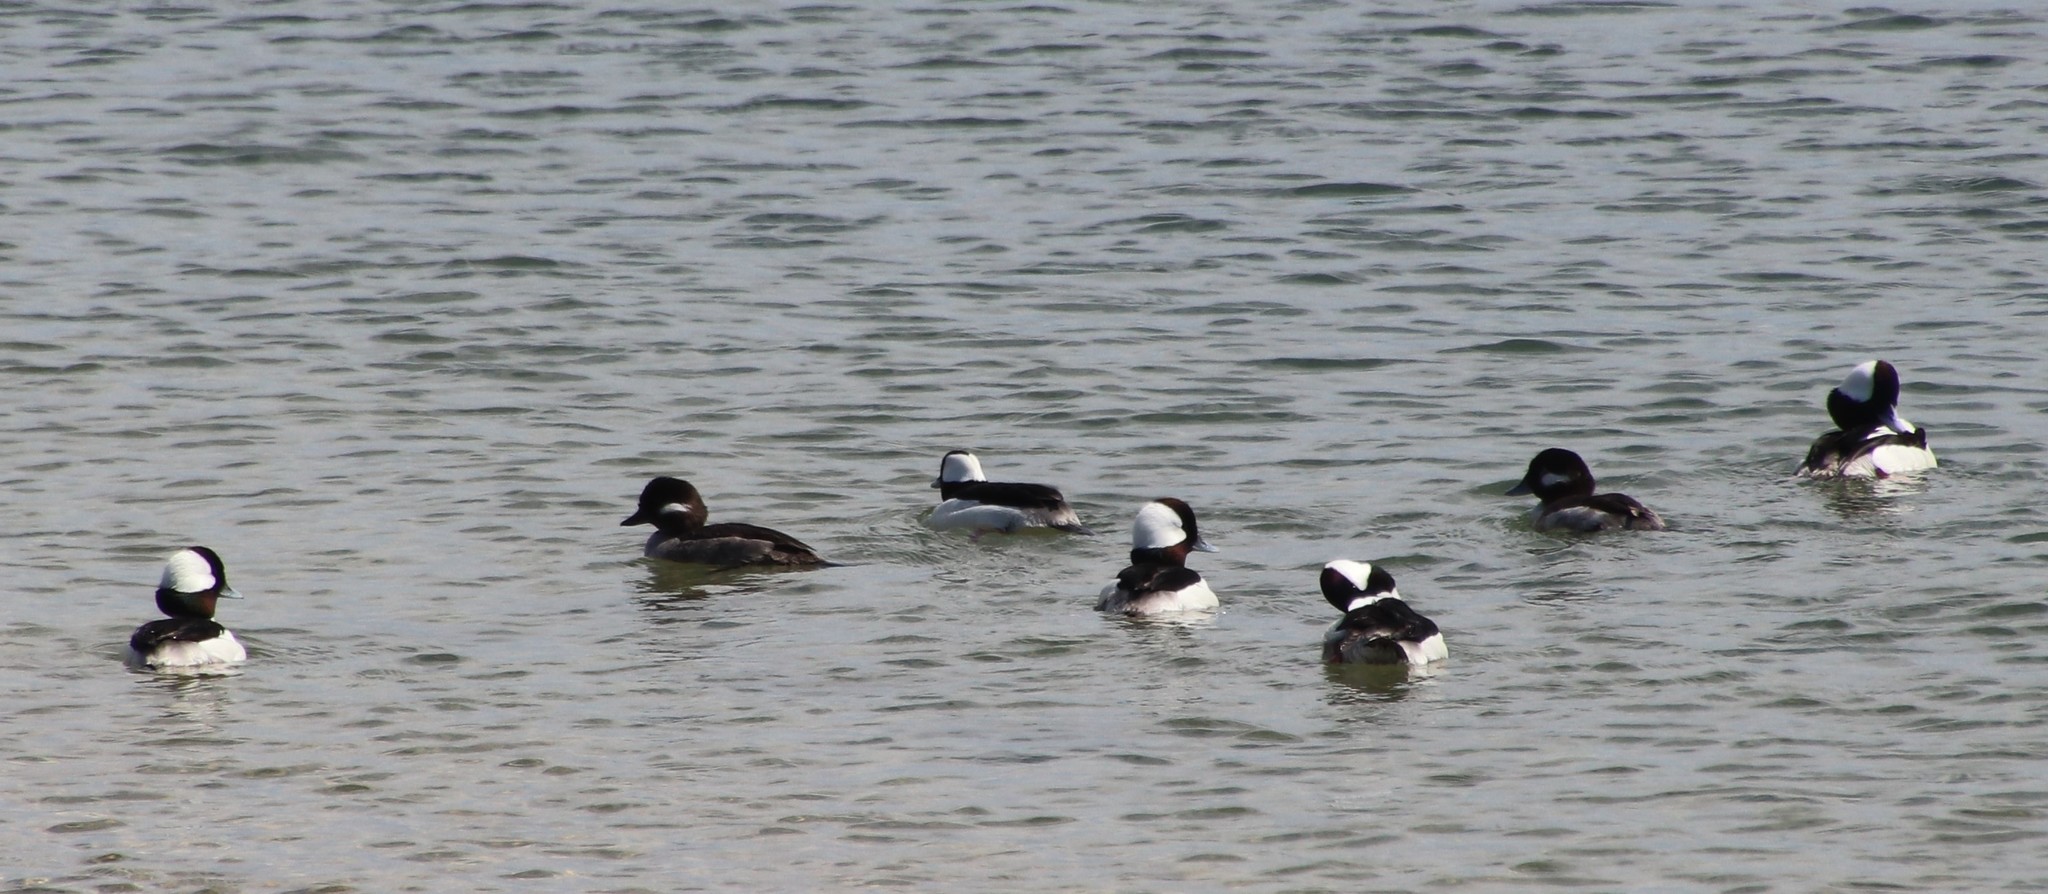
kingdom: Animalia
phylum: Chordata
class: Aves
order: Anseriformes
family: Anatidae
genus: Bucephala
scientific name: Bucephala albeola
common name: Bufflehead
